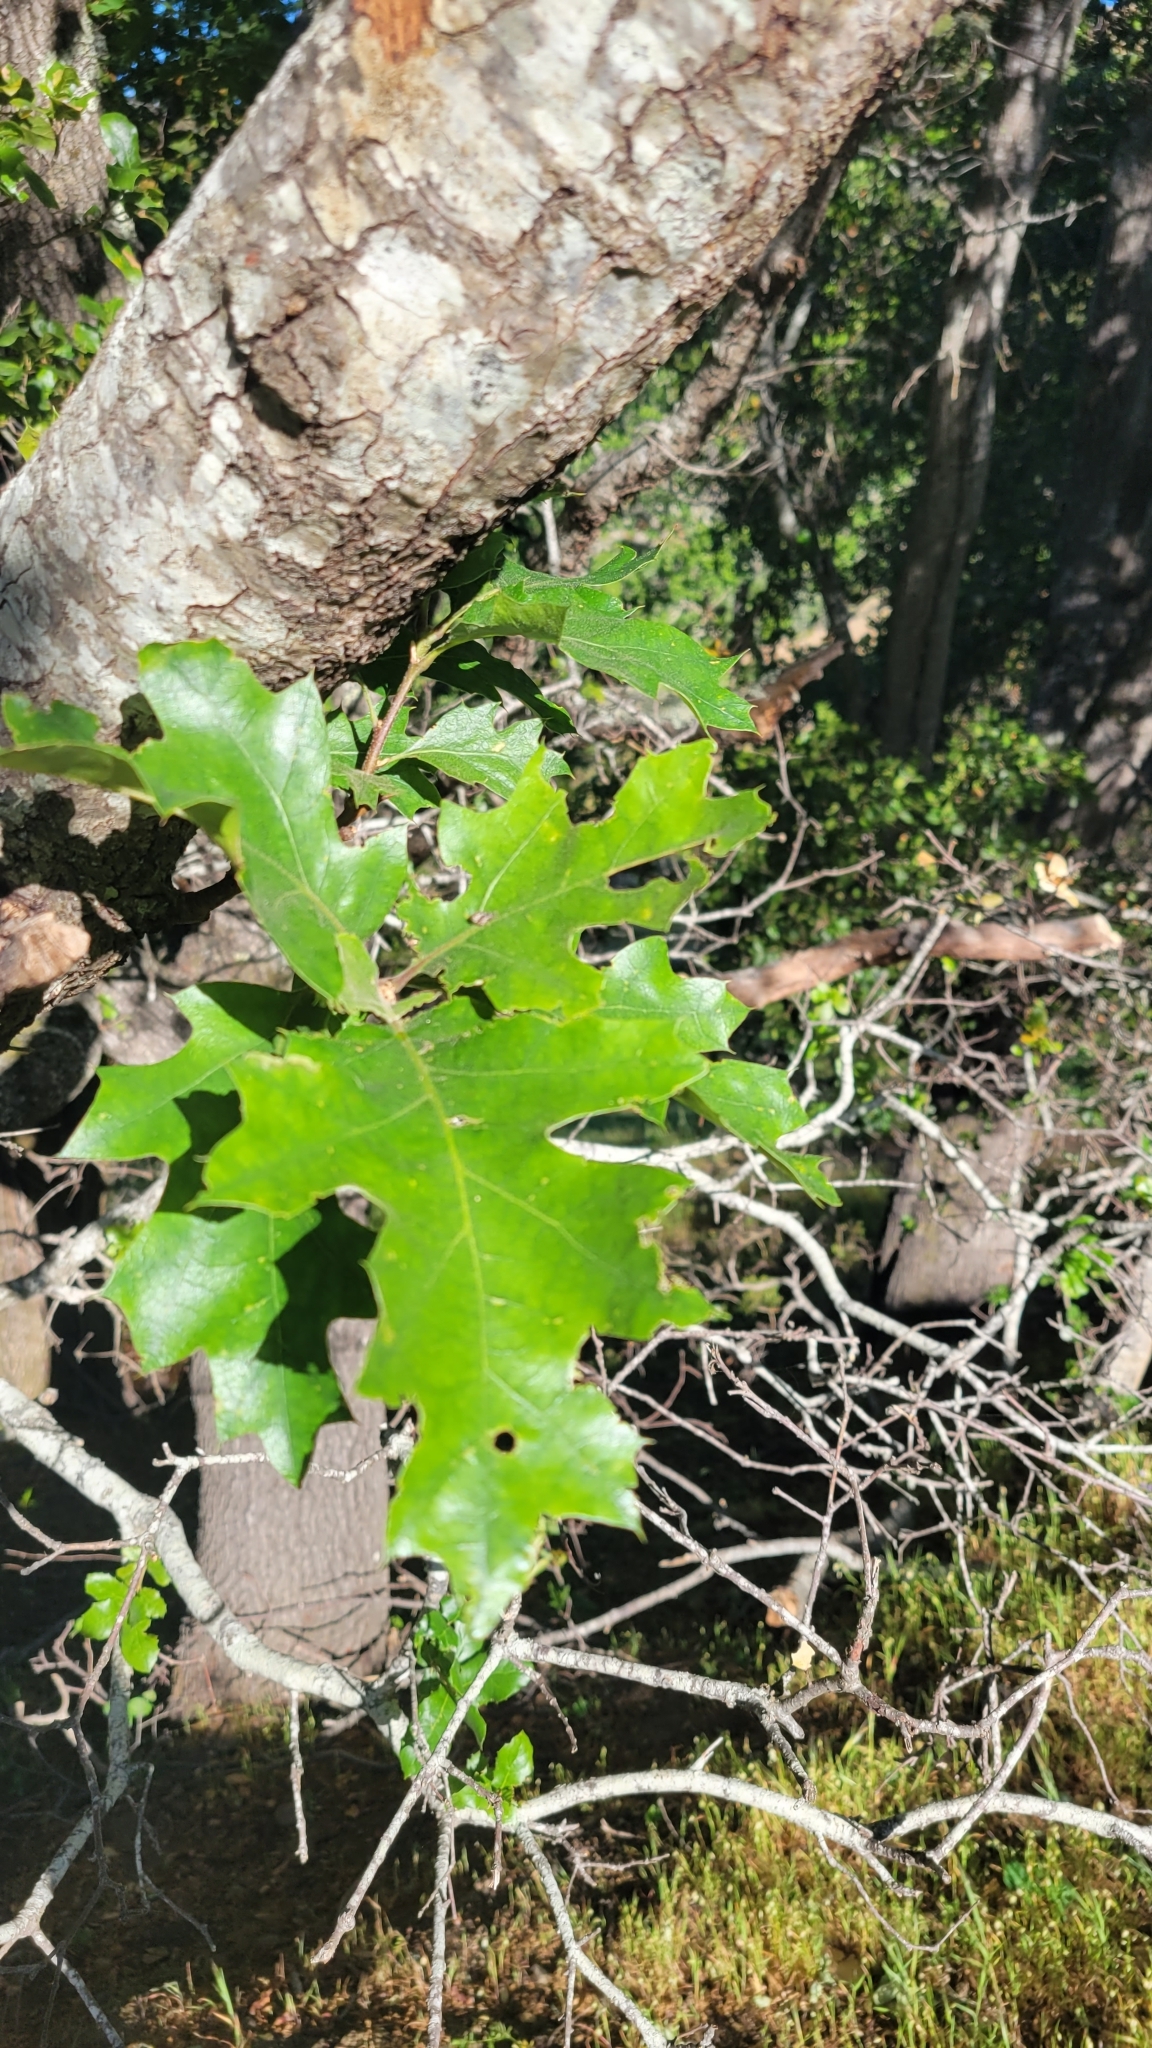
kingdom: Plantae
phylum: Tracheophyta
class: Magnoliopsida
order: Fagales
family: Fagaceae
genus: Quercus
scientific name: Quercus kelloggii
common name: California black oak
